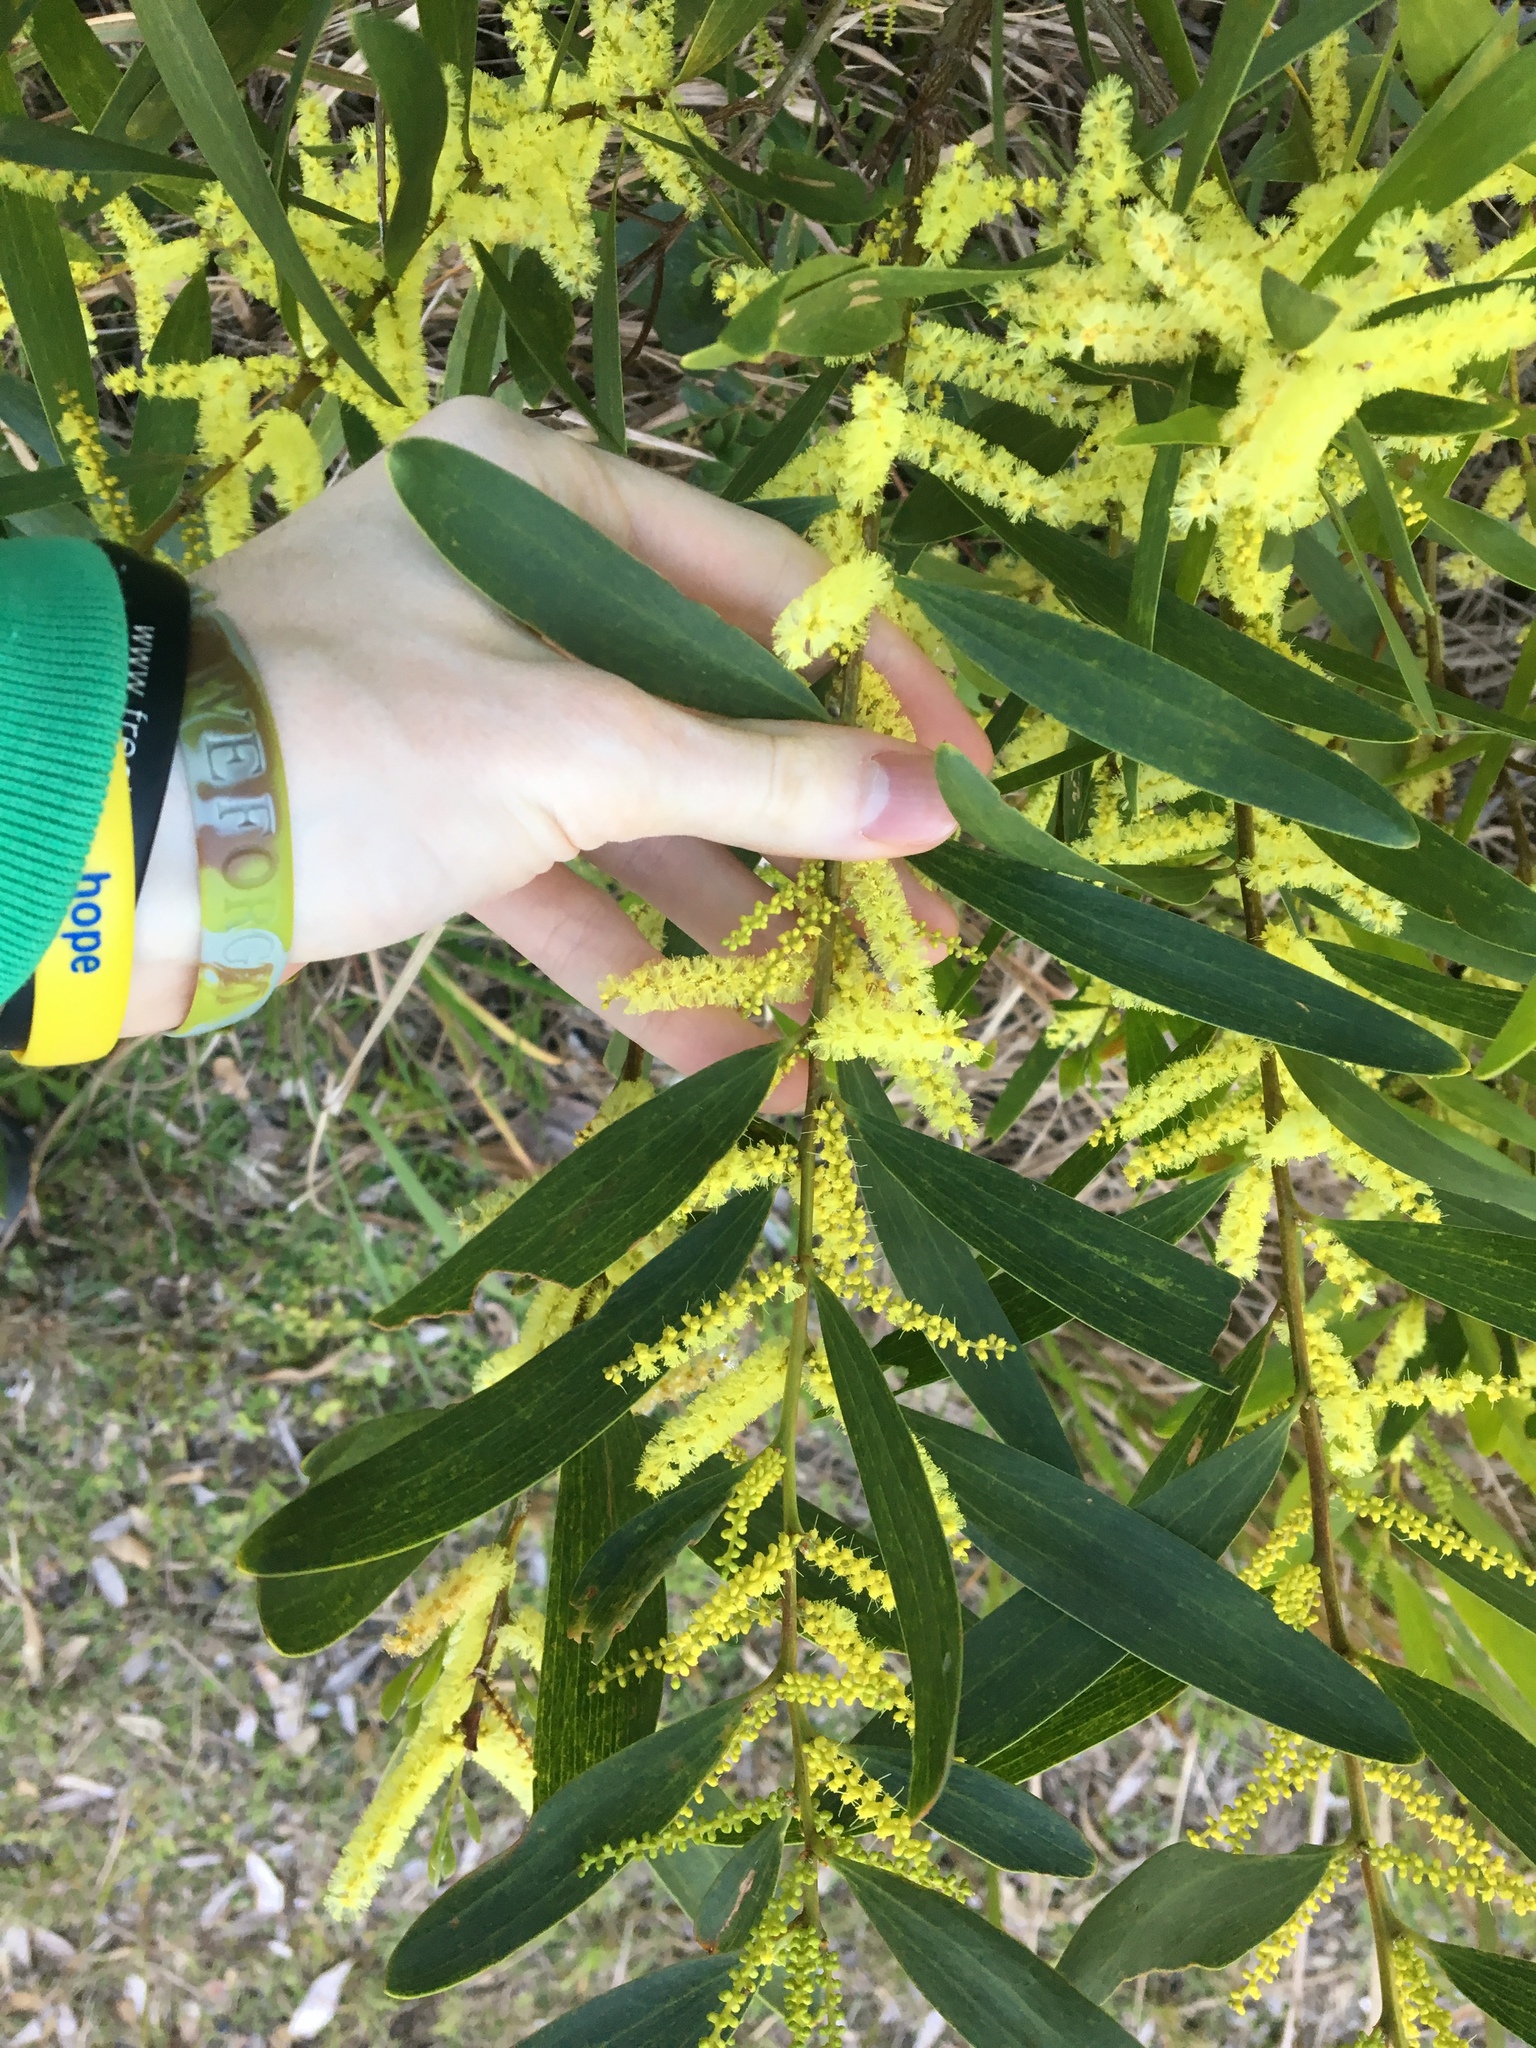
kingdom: Plantae
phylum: Tracheophyta
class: Magnoliopsida
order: Fabales
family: Fabaceae
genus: Acacia
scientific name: Acacia longifolia
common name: Sydney golden wattle
